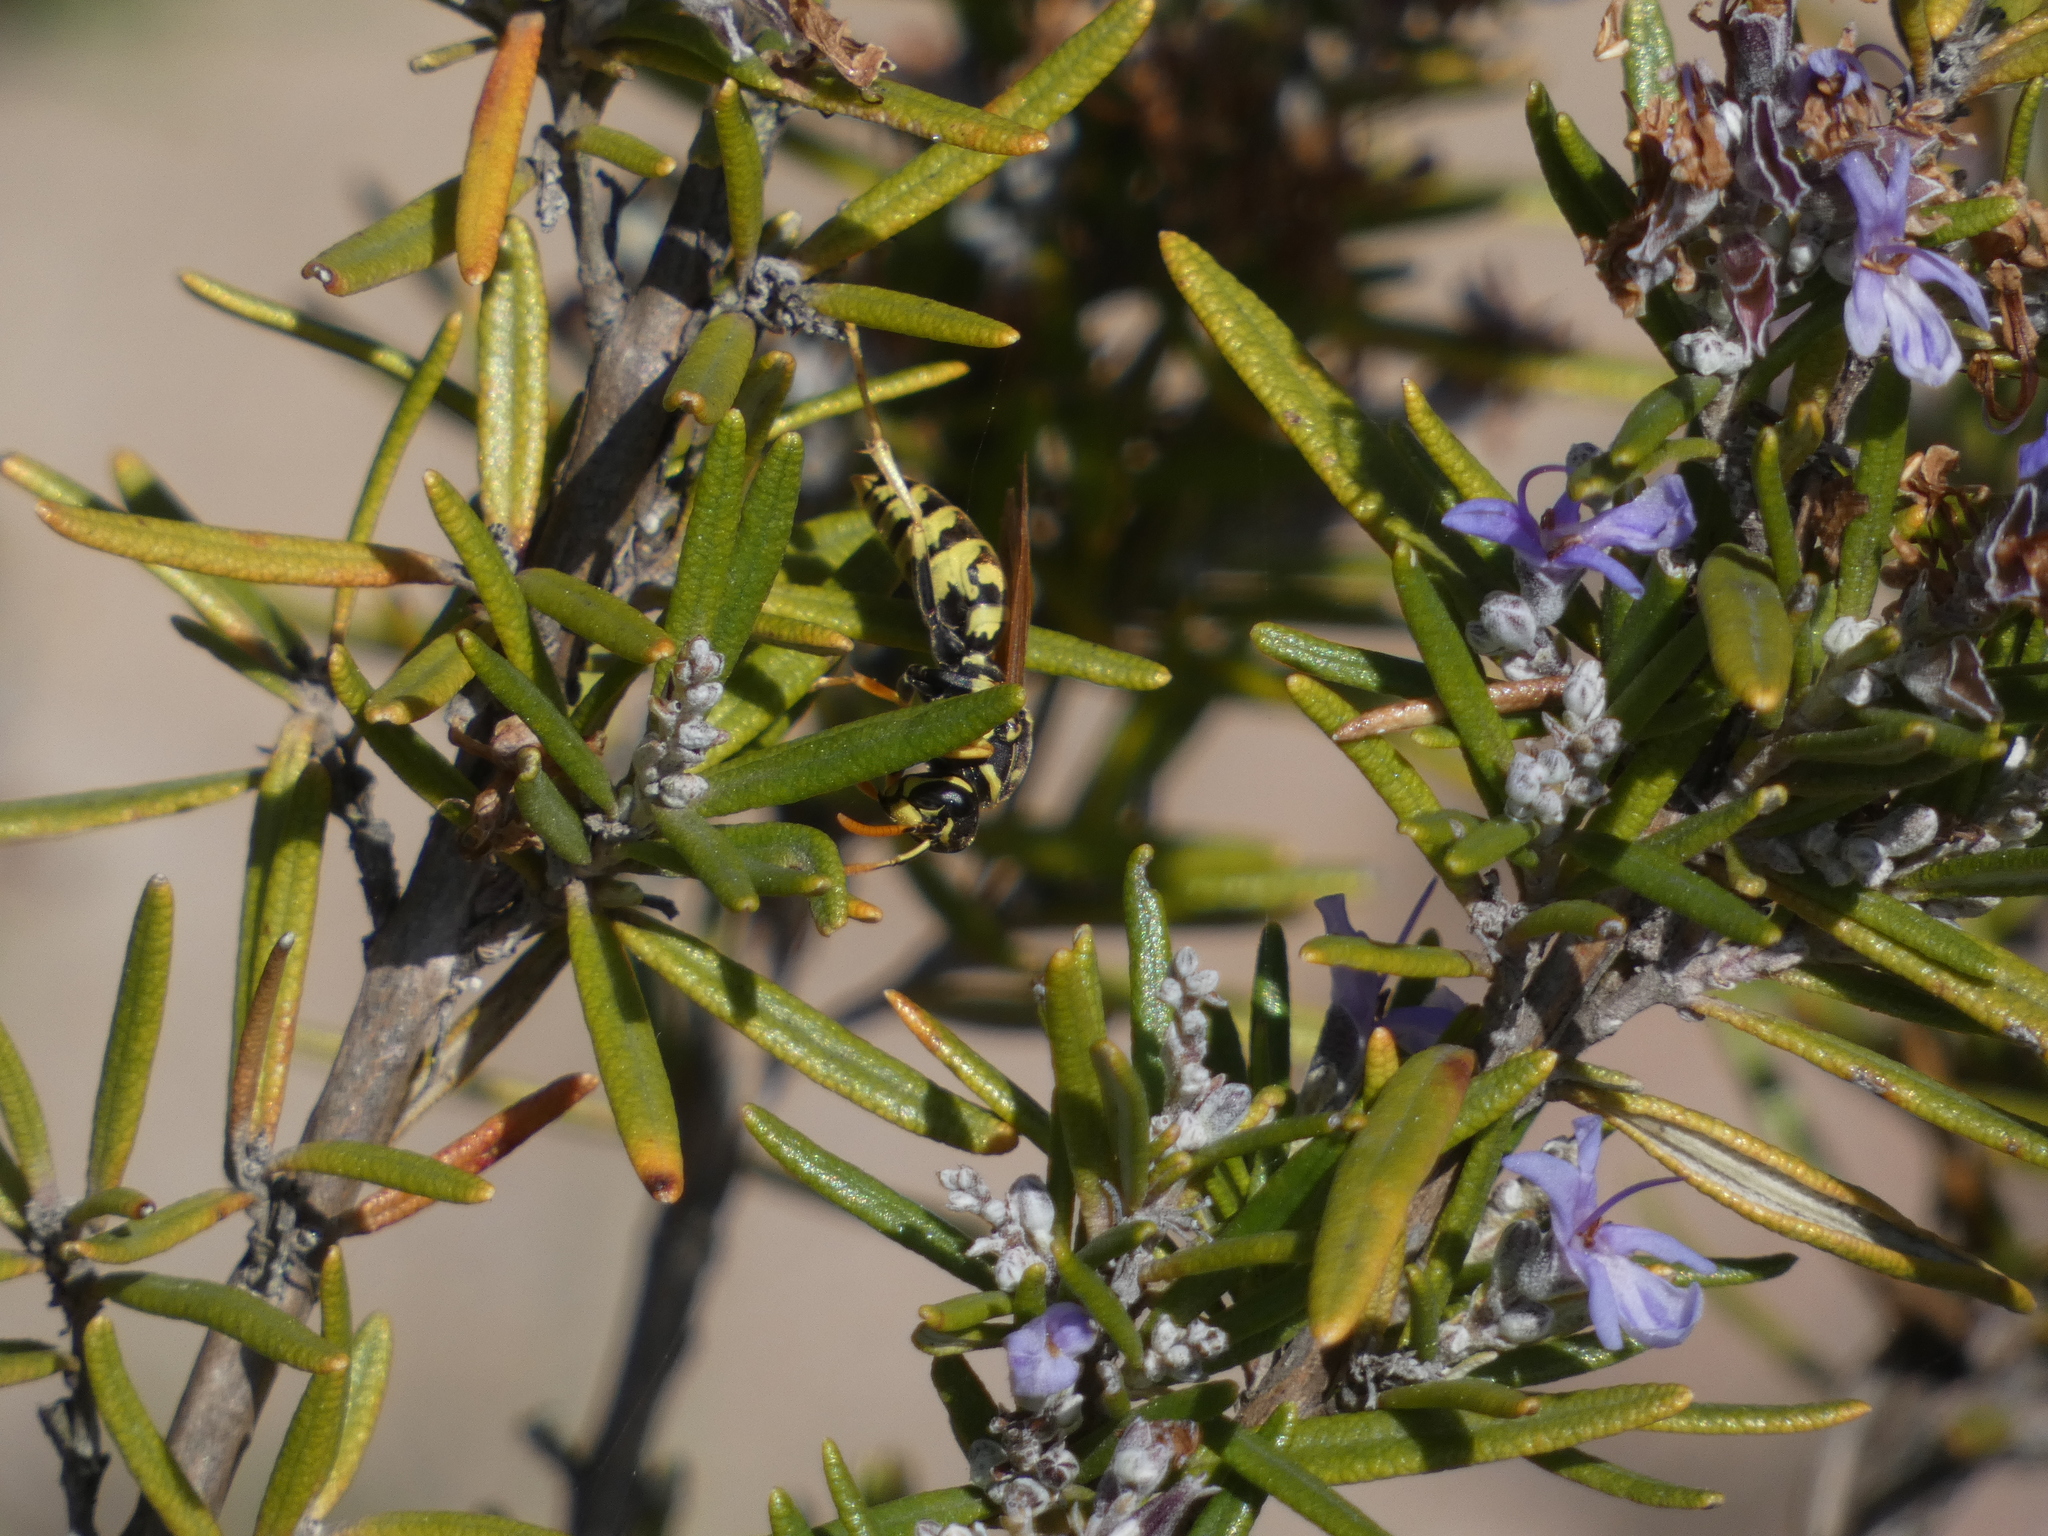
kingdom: Animalia
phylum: Arthropoda
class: Insecta
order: Hymenoptera
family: Eumenidae
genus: Polistes
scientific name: Polistes dominula
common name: Paper wasp
